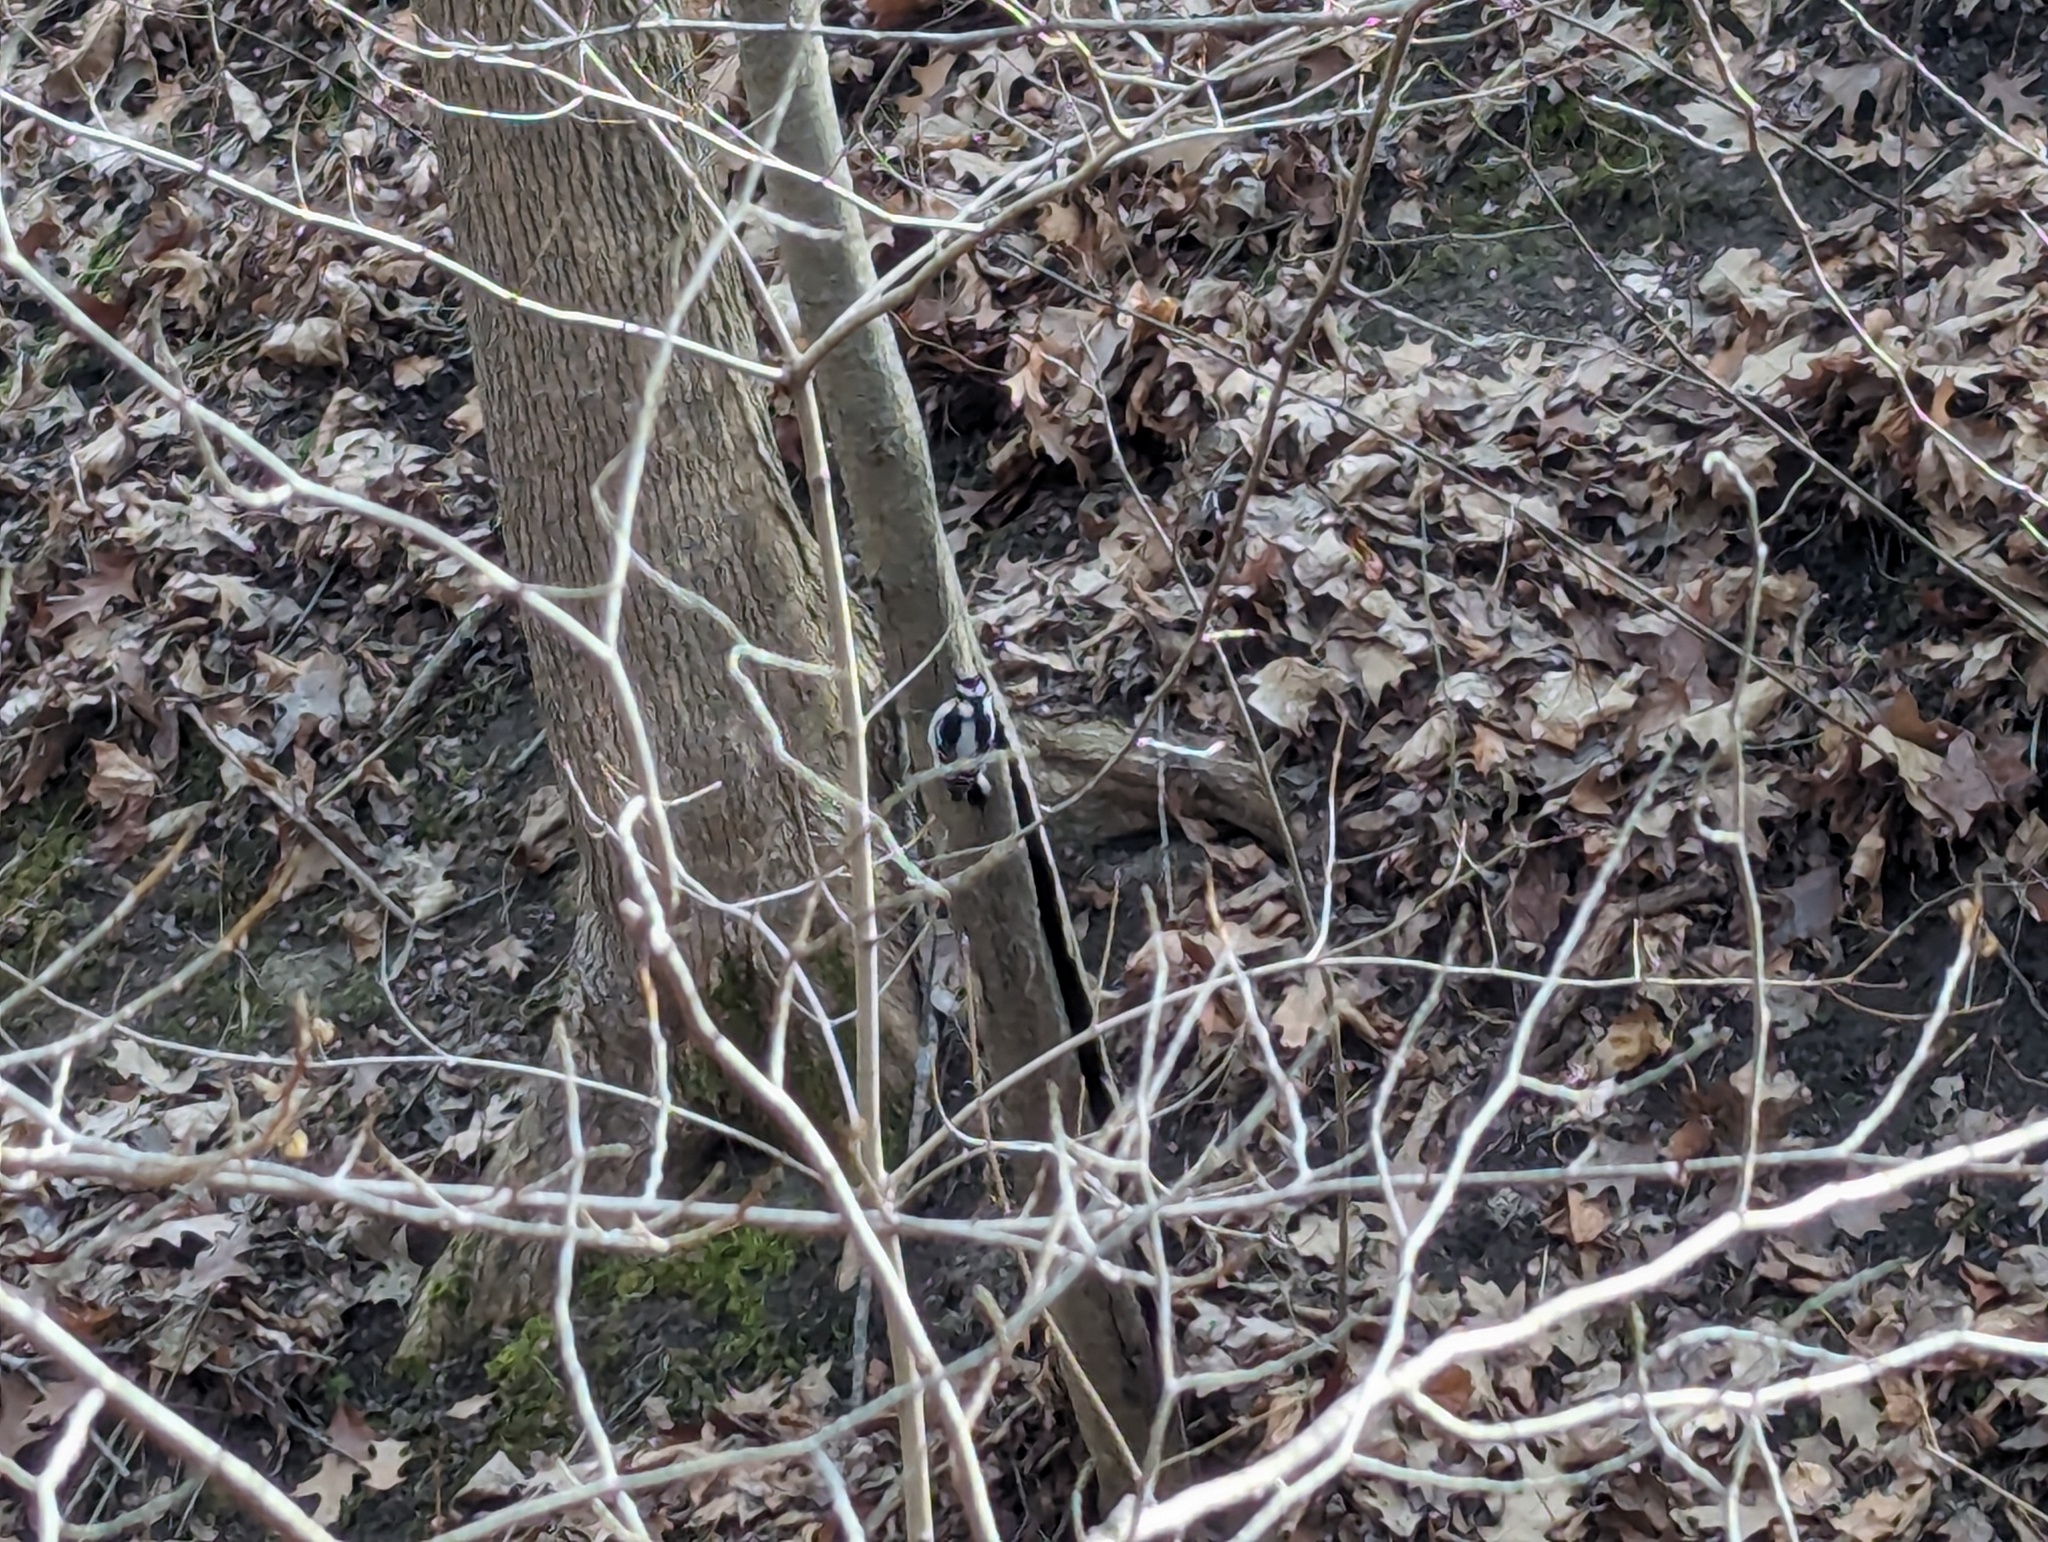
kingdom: Animalia
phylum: Chordata
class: Aves
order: Piciformes
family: Picidae
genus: Dryobates
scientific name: Dryobates pubescens
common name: Downy woodpecker
